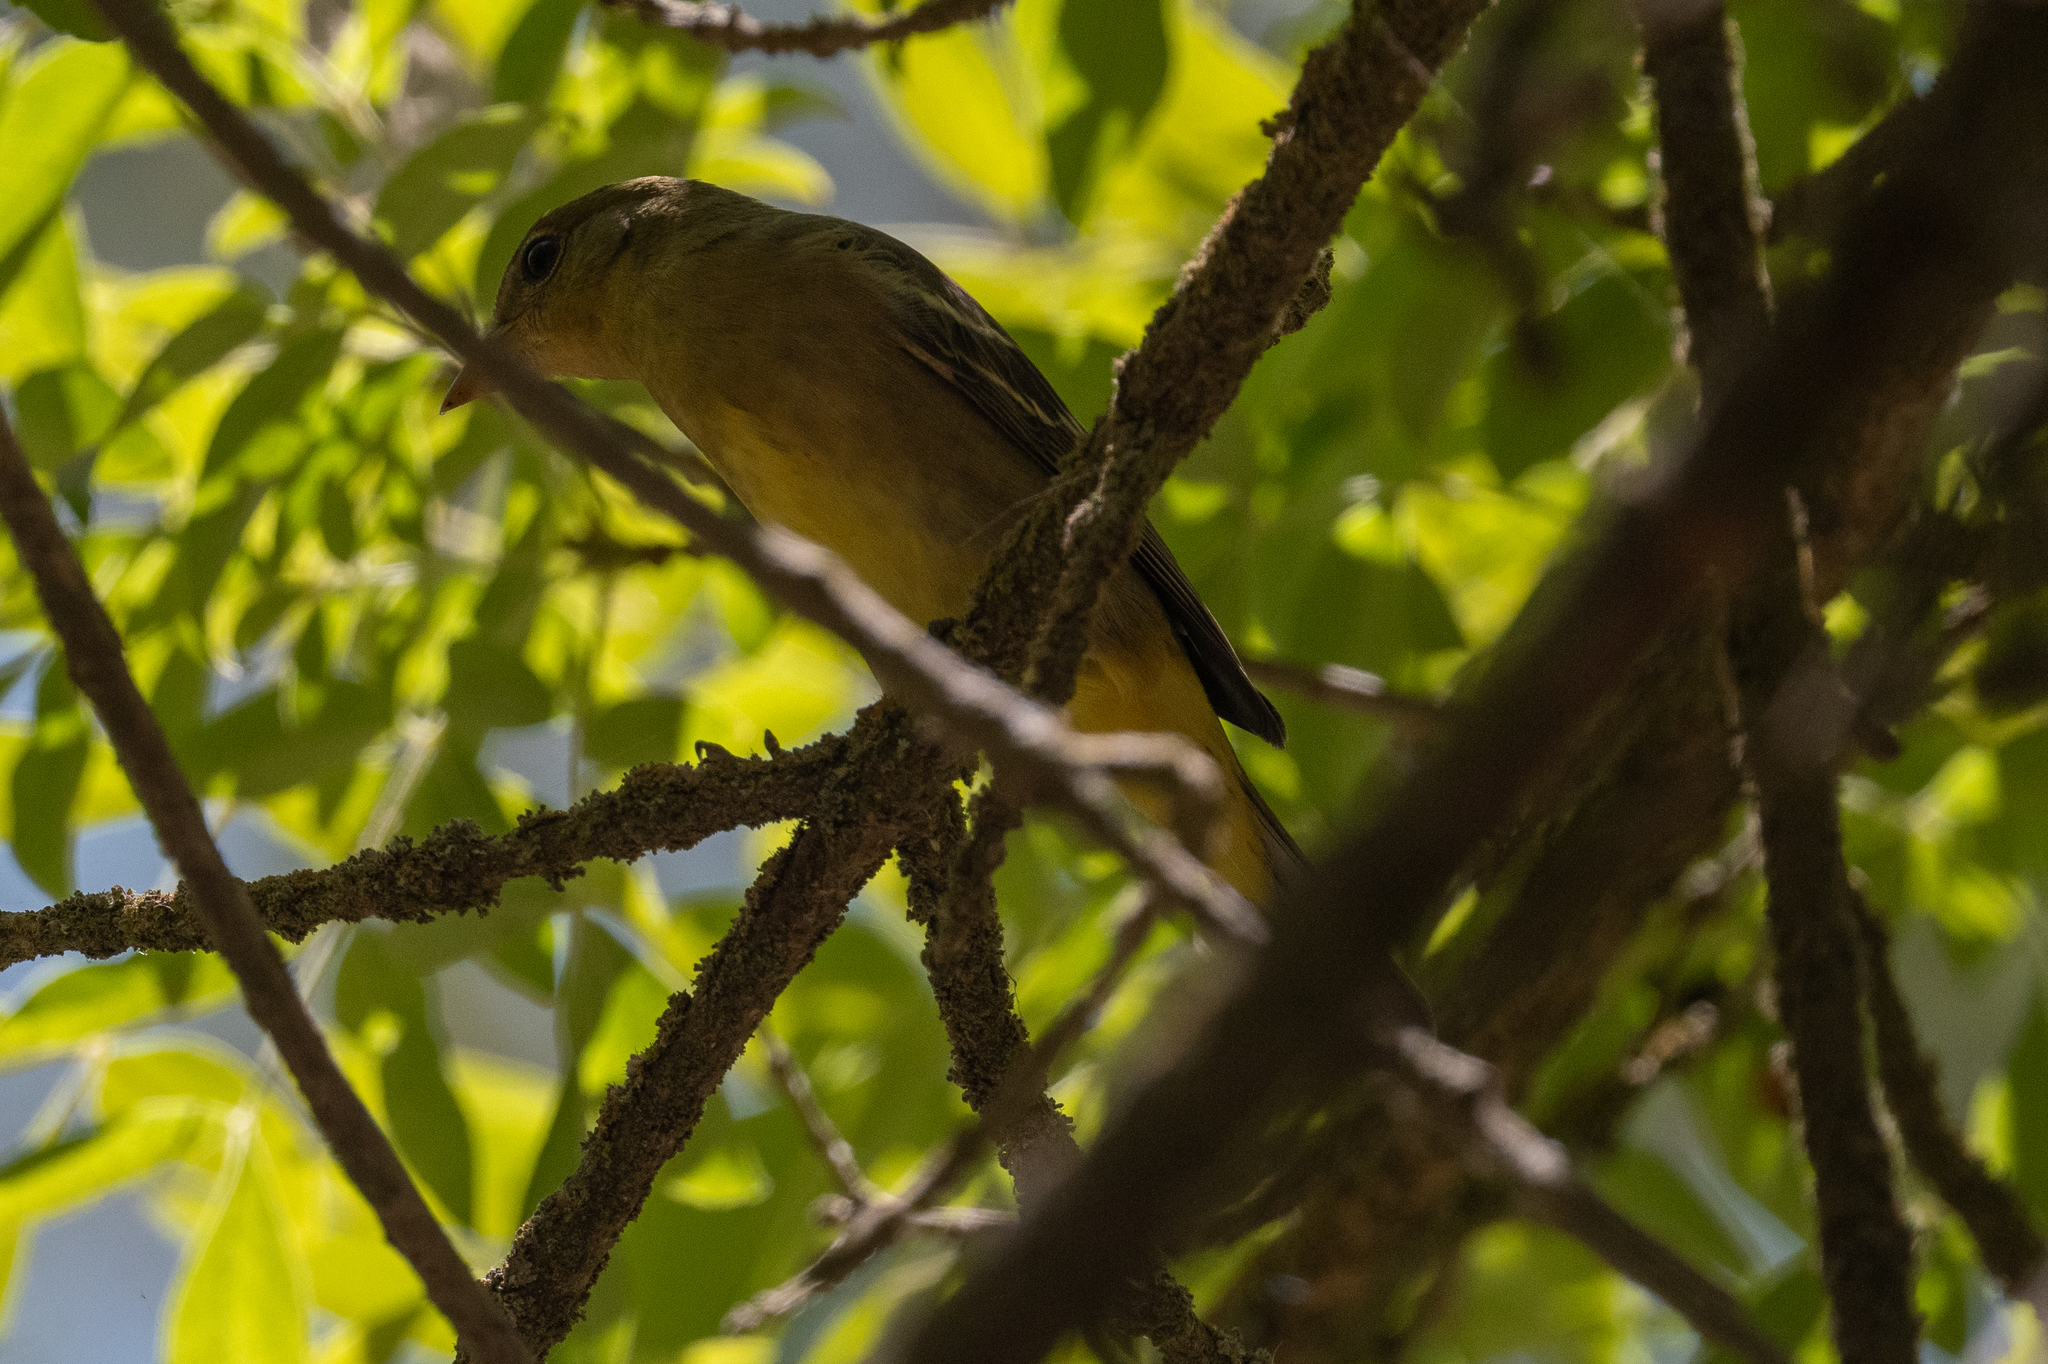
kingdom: Animalia
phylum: Chordata
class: Aves
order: Passeriformes
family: Cardinalidae
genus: Piranga
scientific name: Piranga ludoviciana
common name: Western tanager
